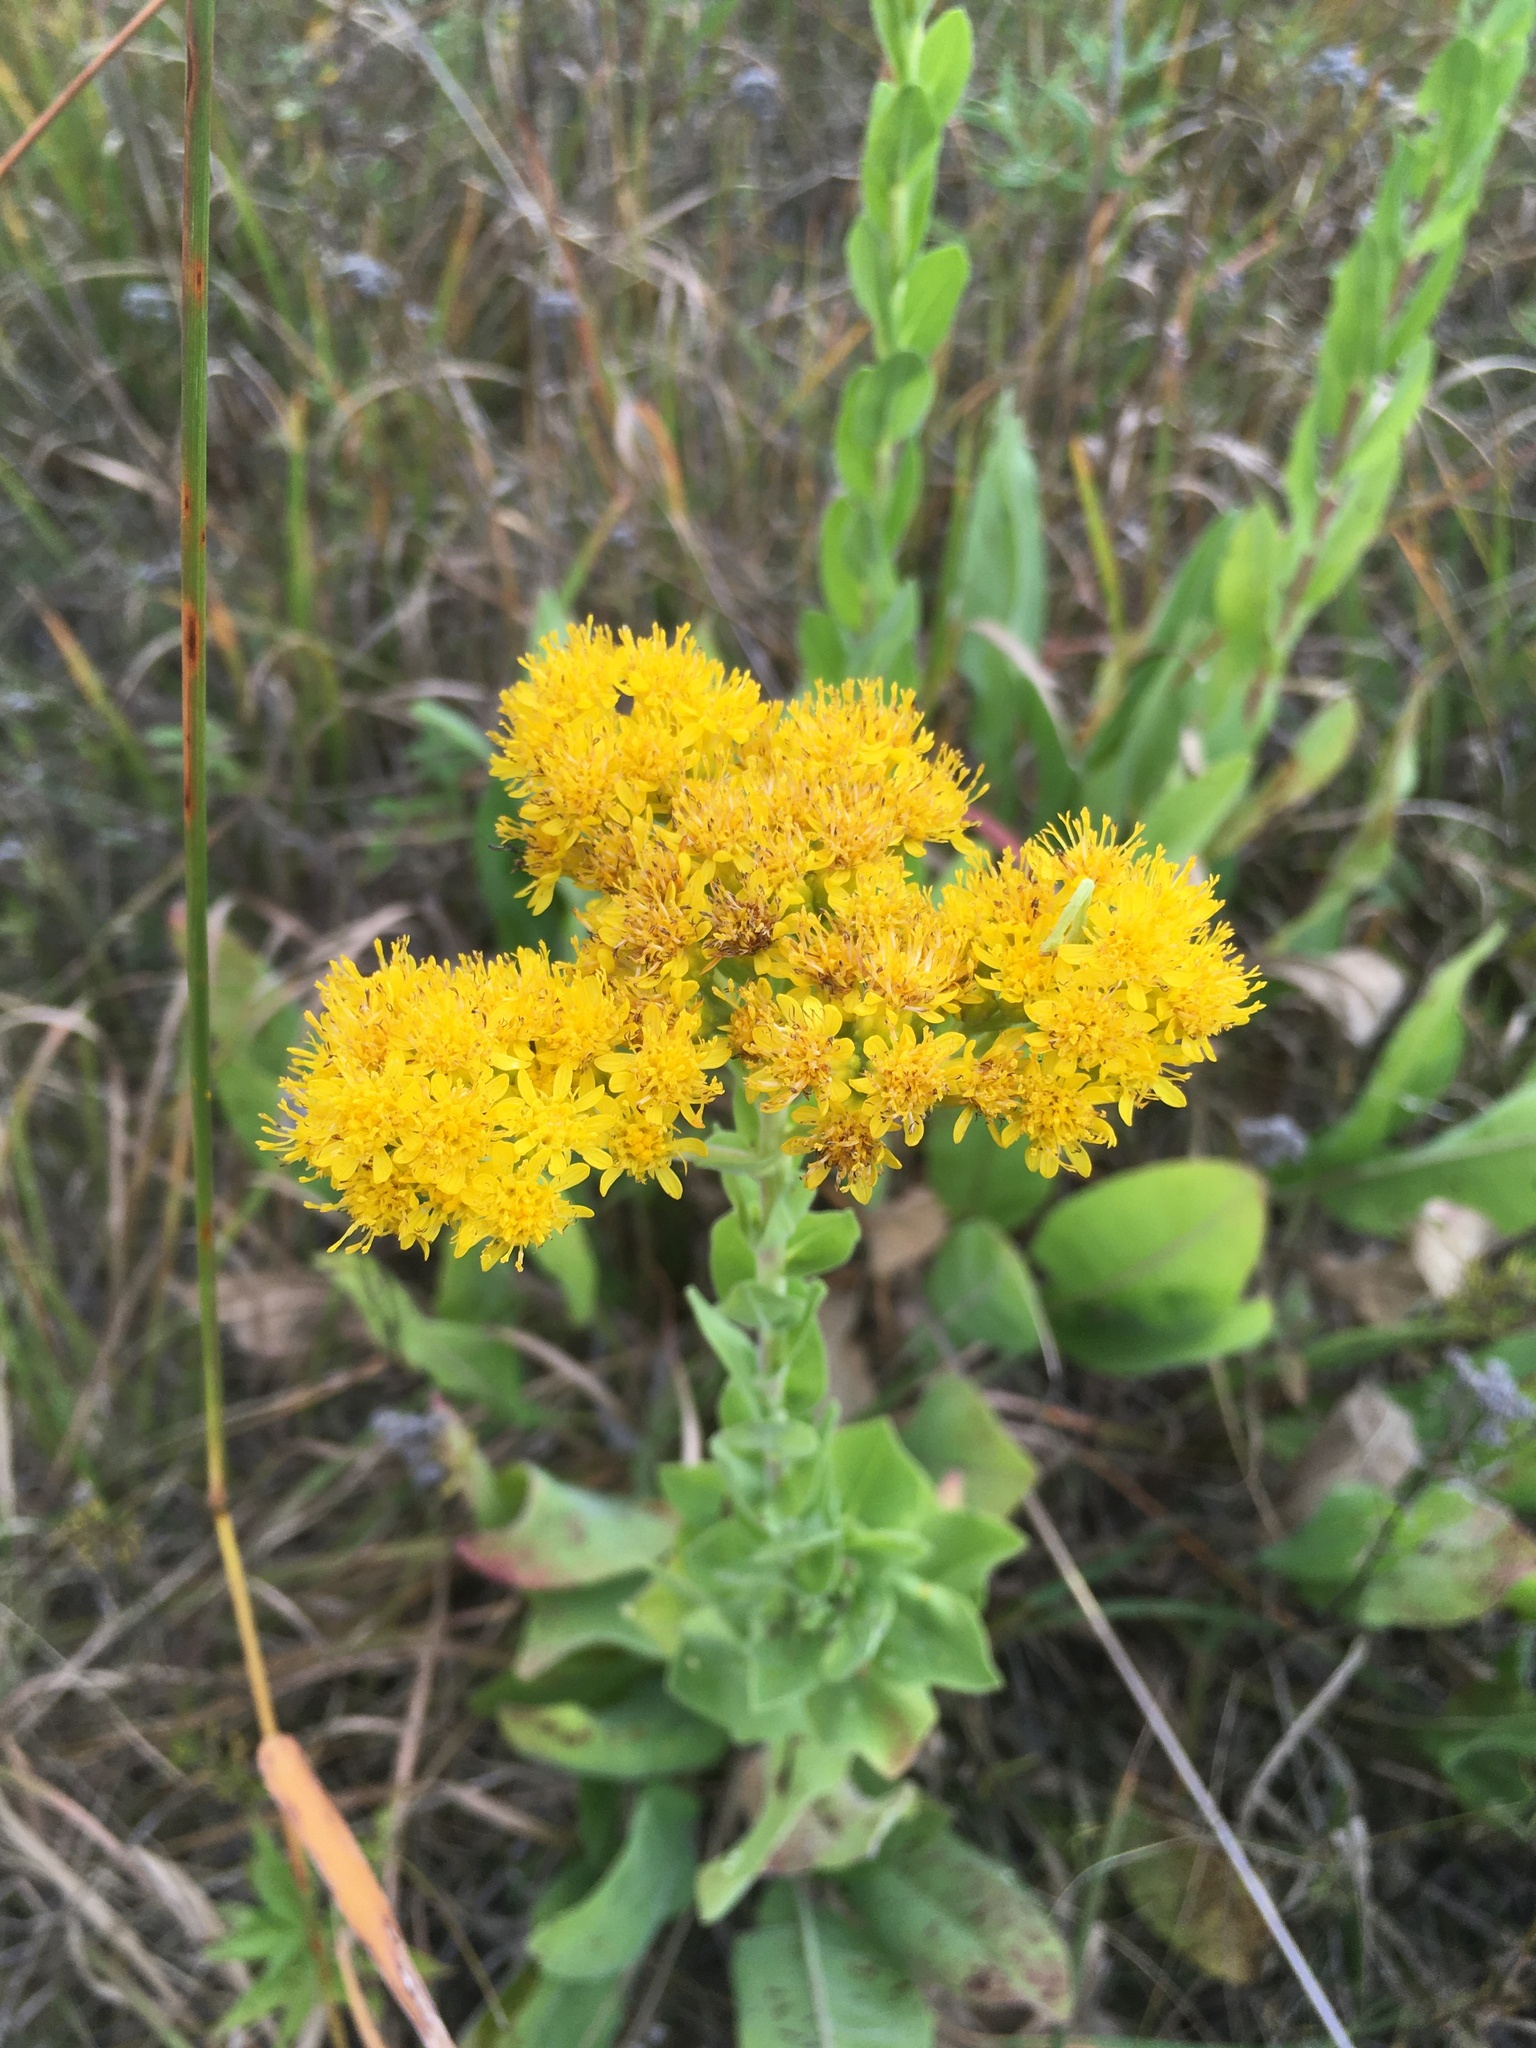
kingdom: Plantae
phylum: Tracheophyta
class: Magnoliopsida
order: Asterales
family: Asteraceae
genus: Solidago
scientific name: Solidago rigida
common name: Rigid goldenrod
